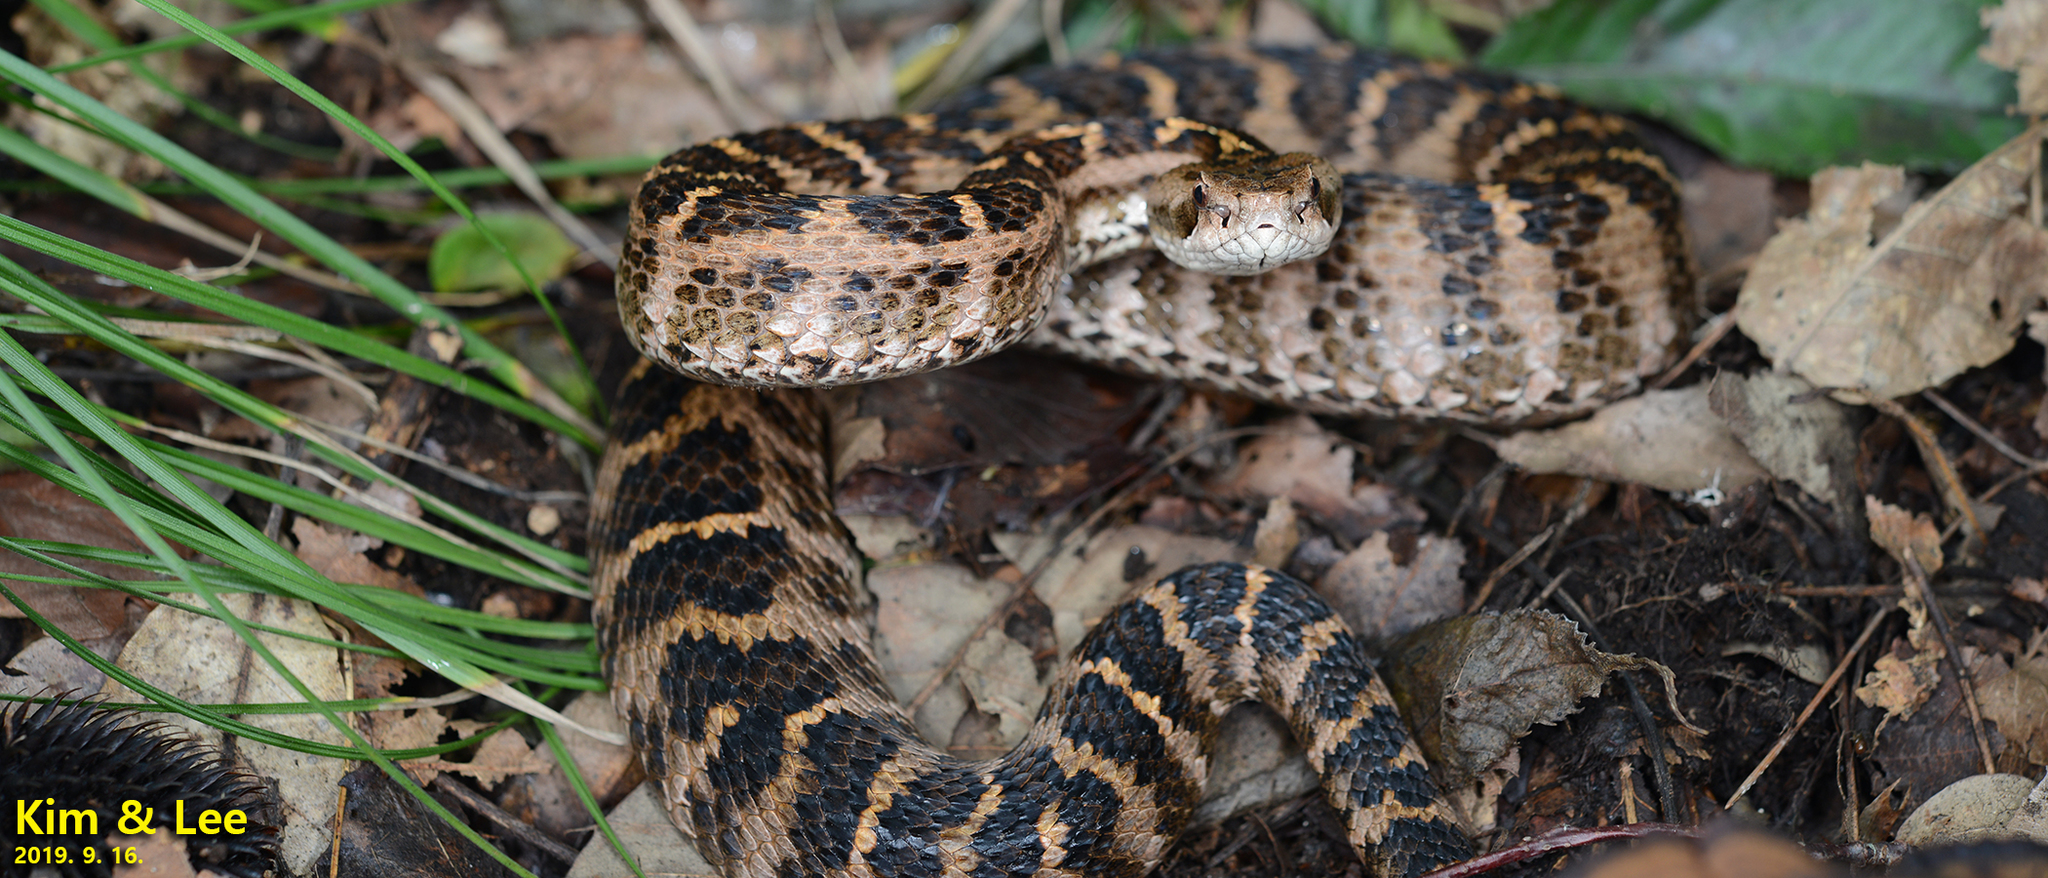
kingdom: Animalia
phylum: Chordata
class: Squamata
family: Viperidae
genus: Gloydius
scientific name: Gloydius intermedius
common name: Central asian pit viper
